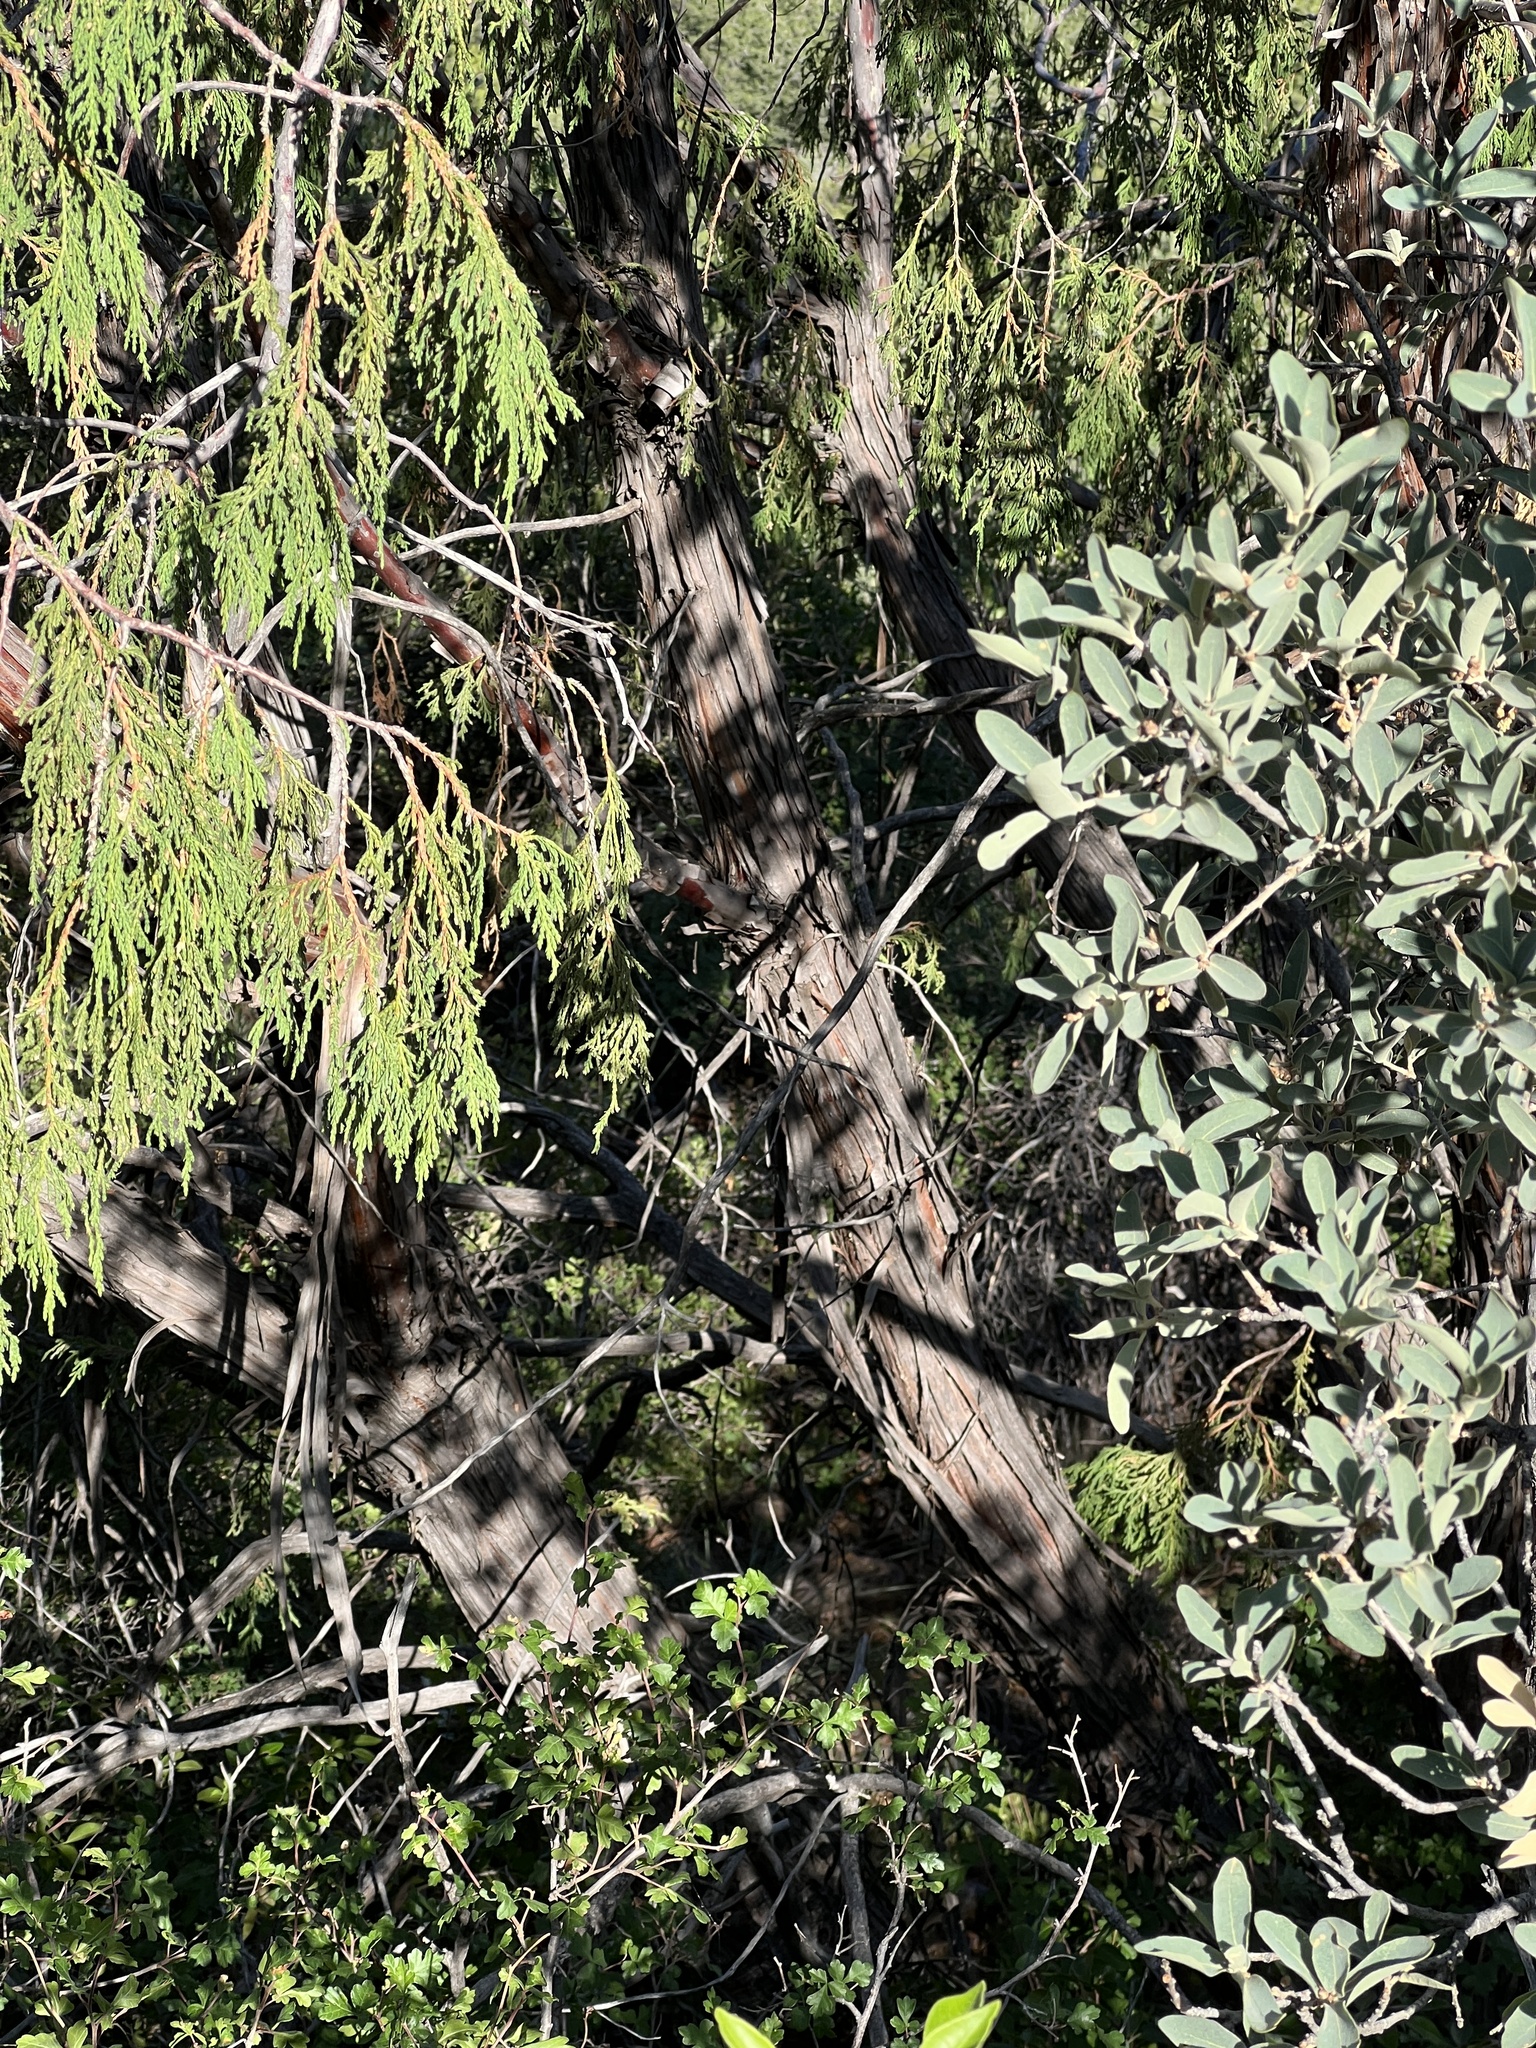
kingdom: Plantae
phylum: Tracheophyta
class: Pinopsida
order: Pinales
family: Cupressaceae
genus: Juniperus
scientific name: Juniperus flaccida
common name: Drooping juniper
